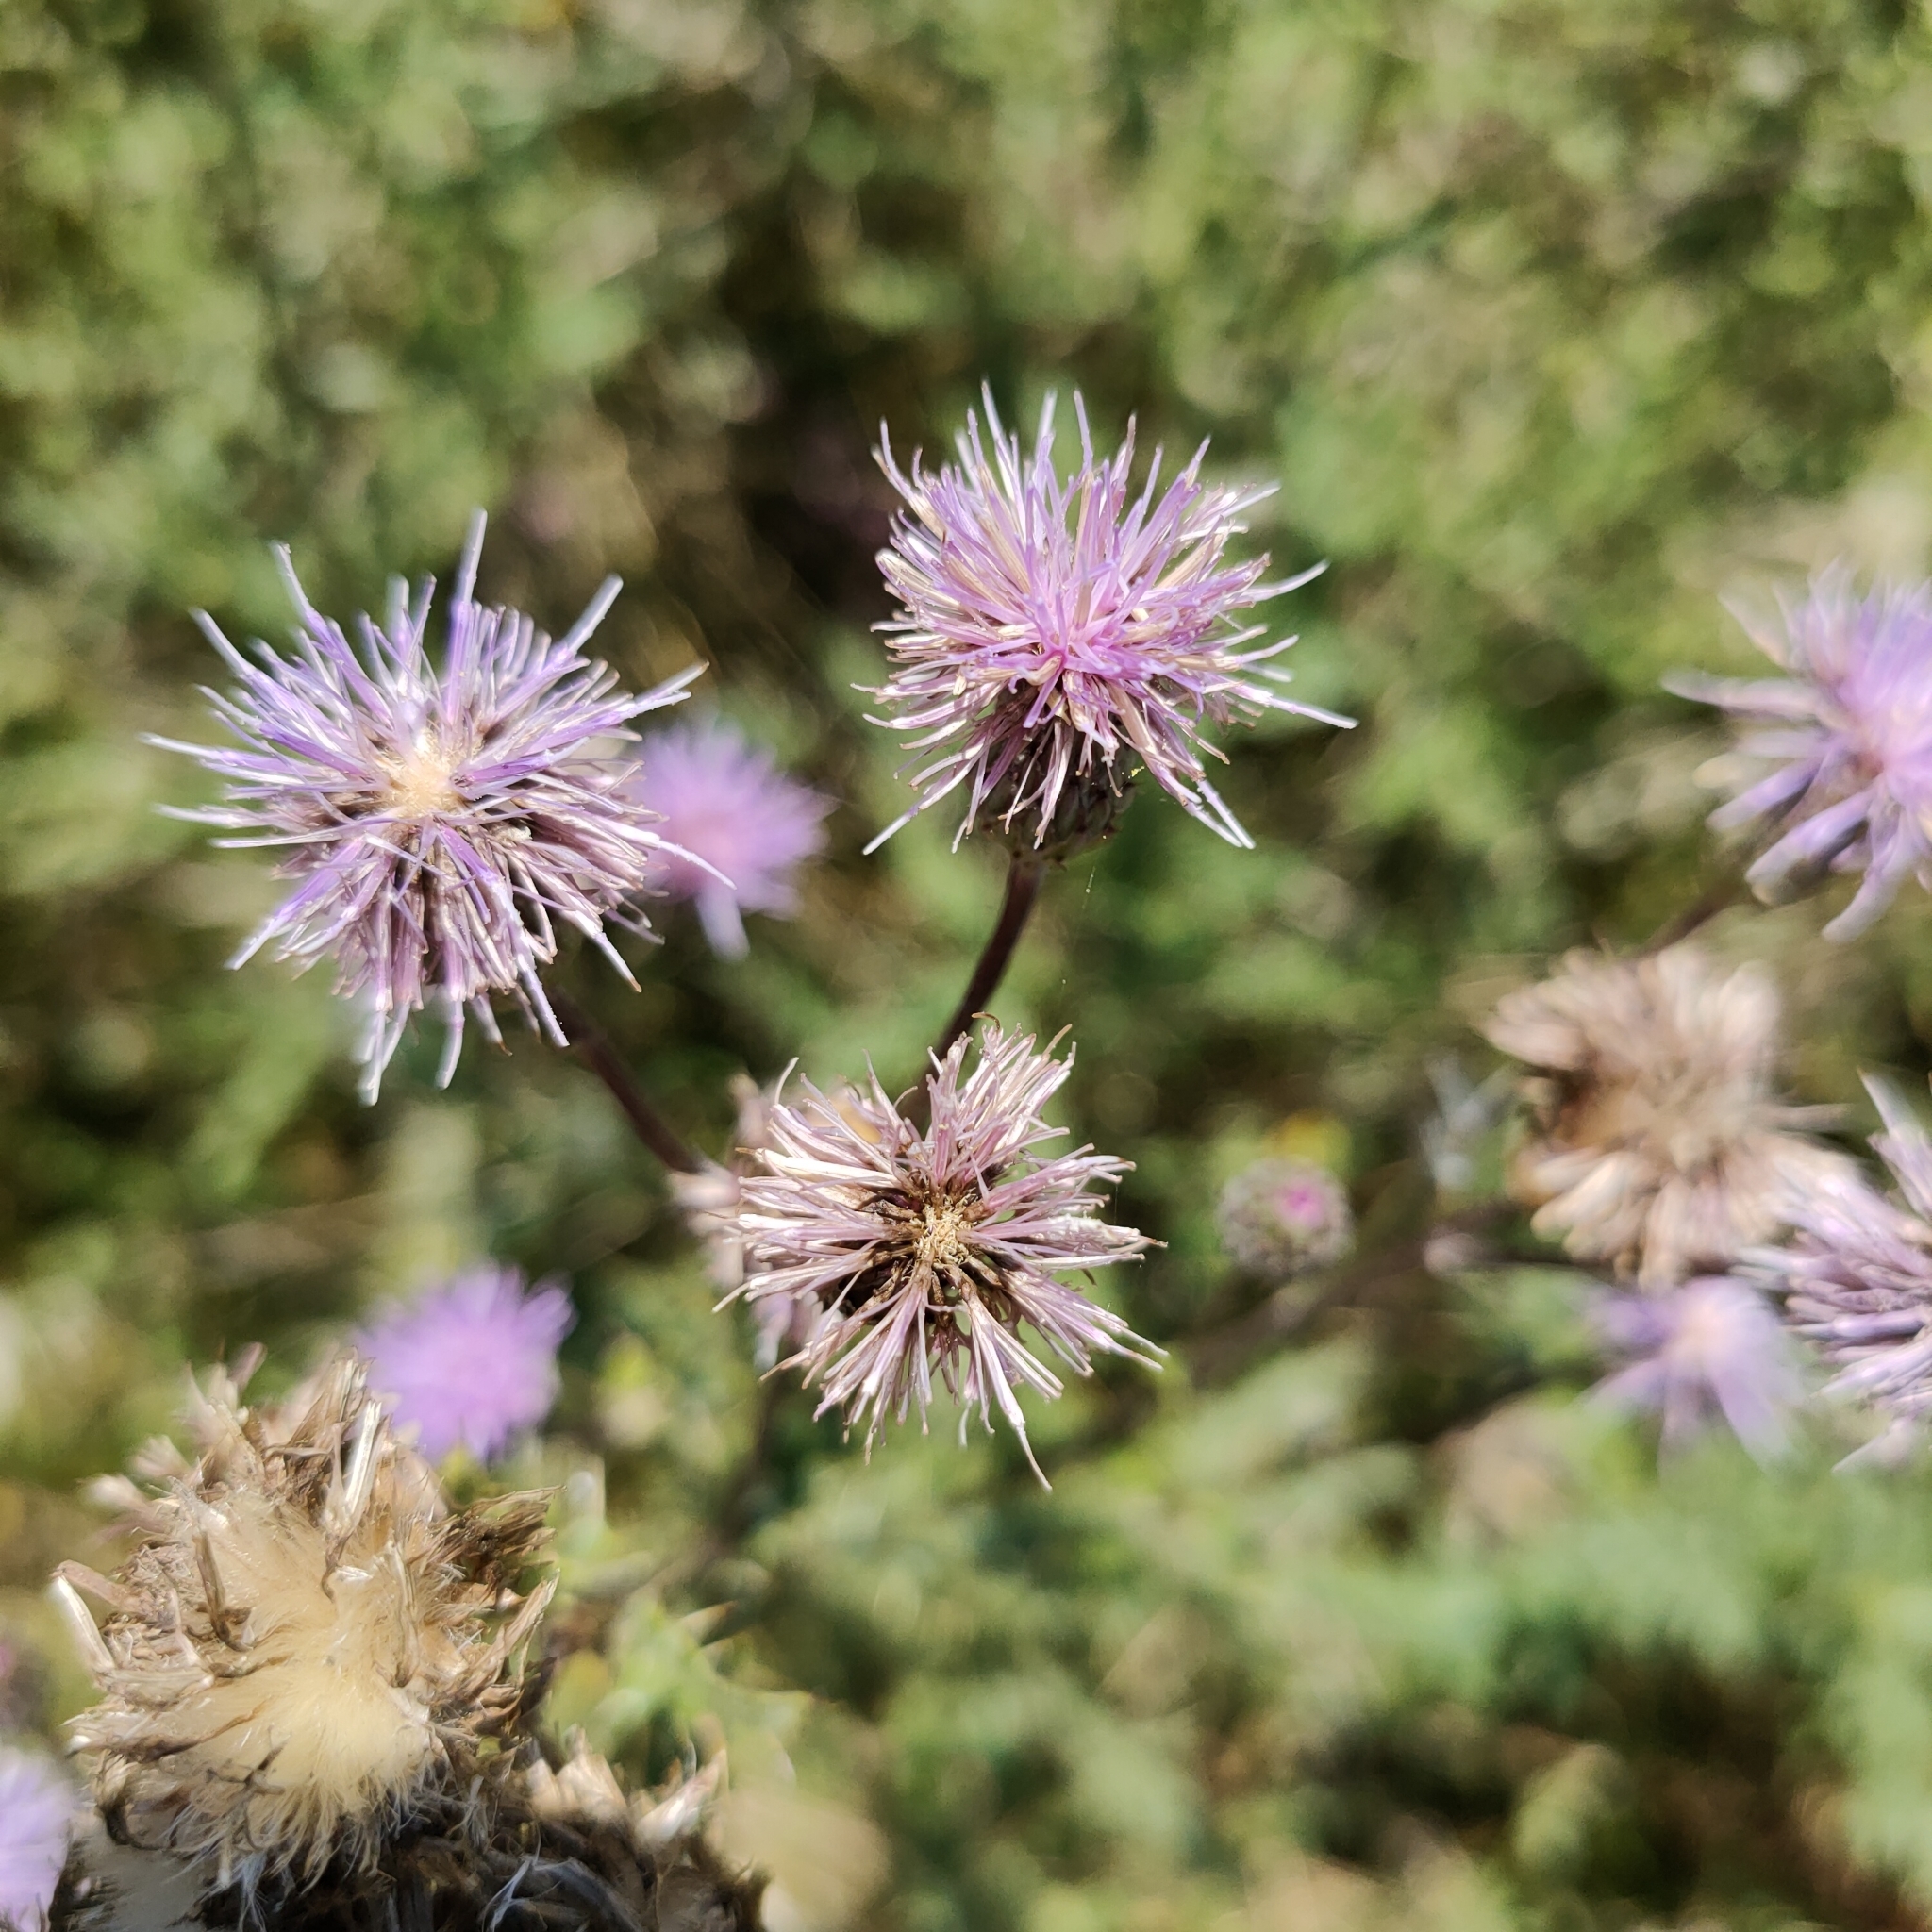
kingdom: Plantae
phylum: Tracheophyta
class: Magnoliopsida
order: Asterales
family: Asteraceae
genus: Cirsium
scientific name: Cirsium arvense
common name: Creeping thistle
